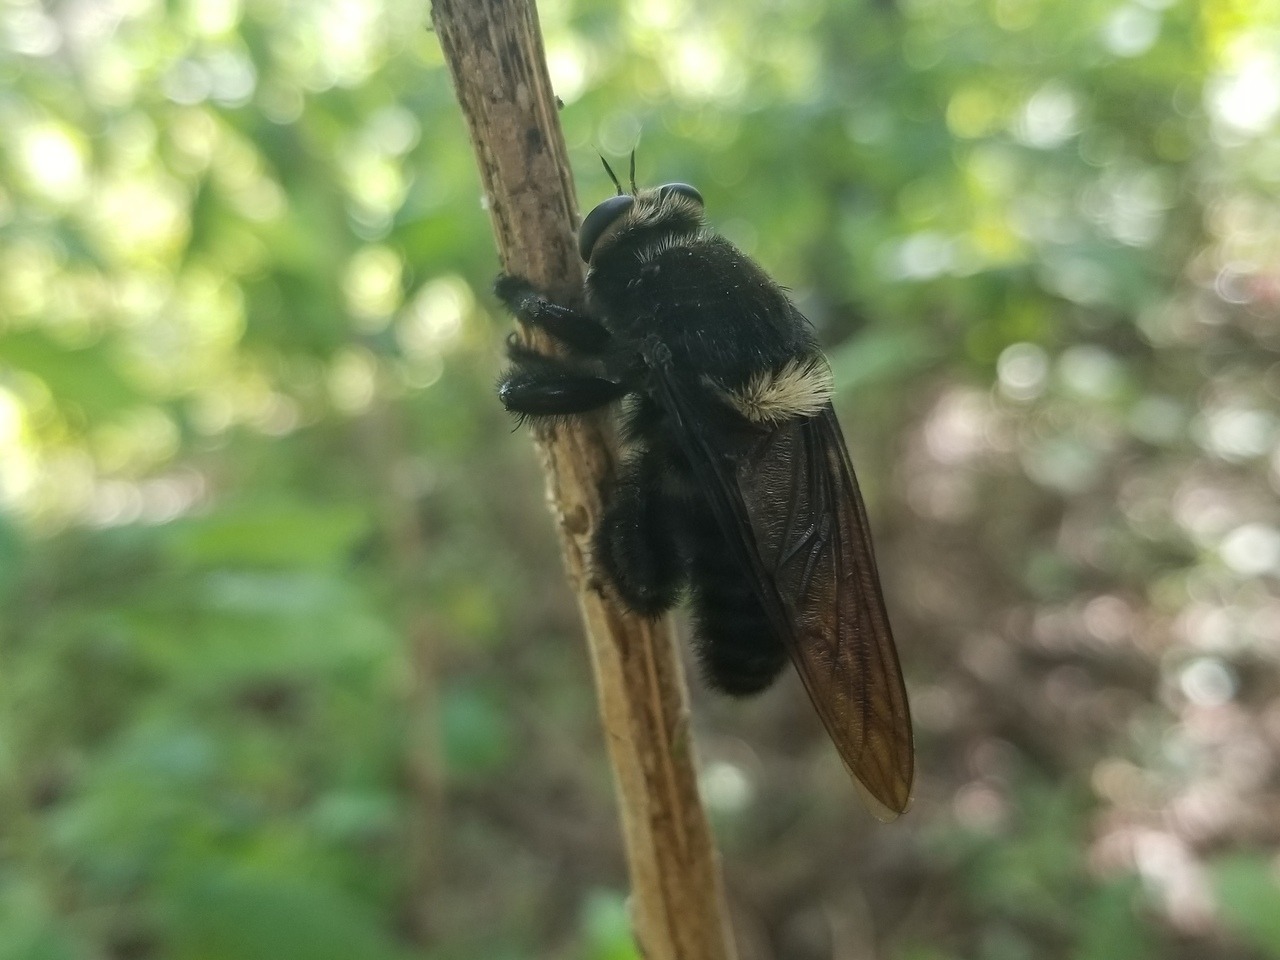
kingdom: Animalia
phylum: Arthropoda
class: Insecta
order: Diptera
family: Asilidae
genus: Mallophora
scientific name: Mallophora leschenaultii
